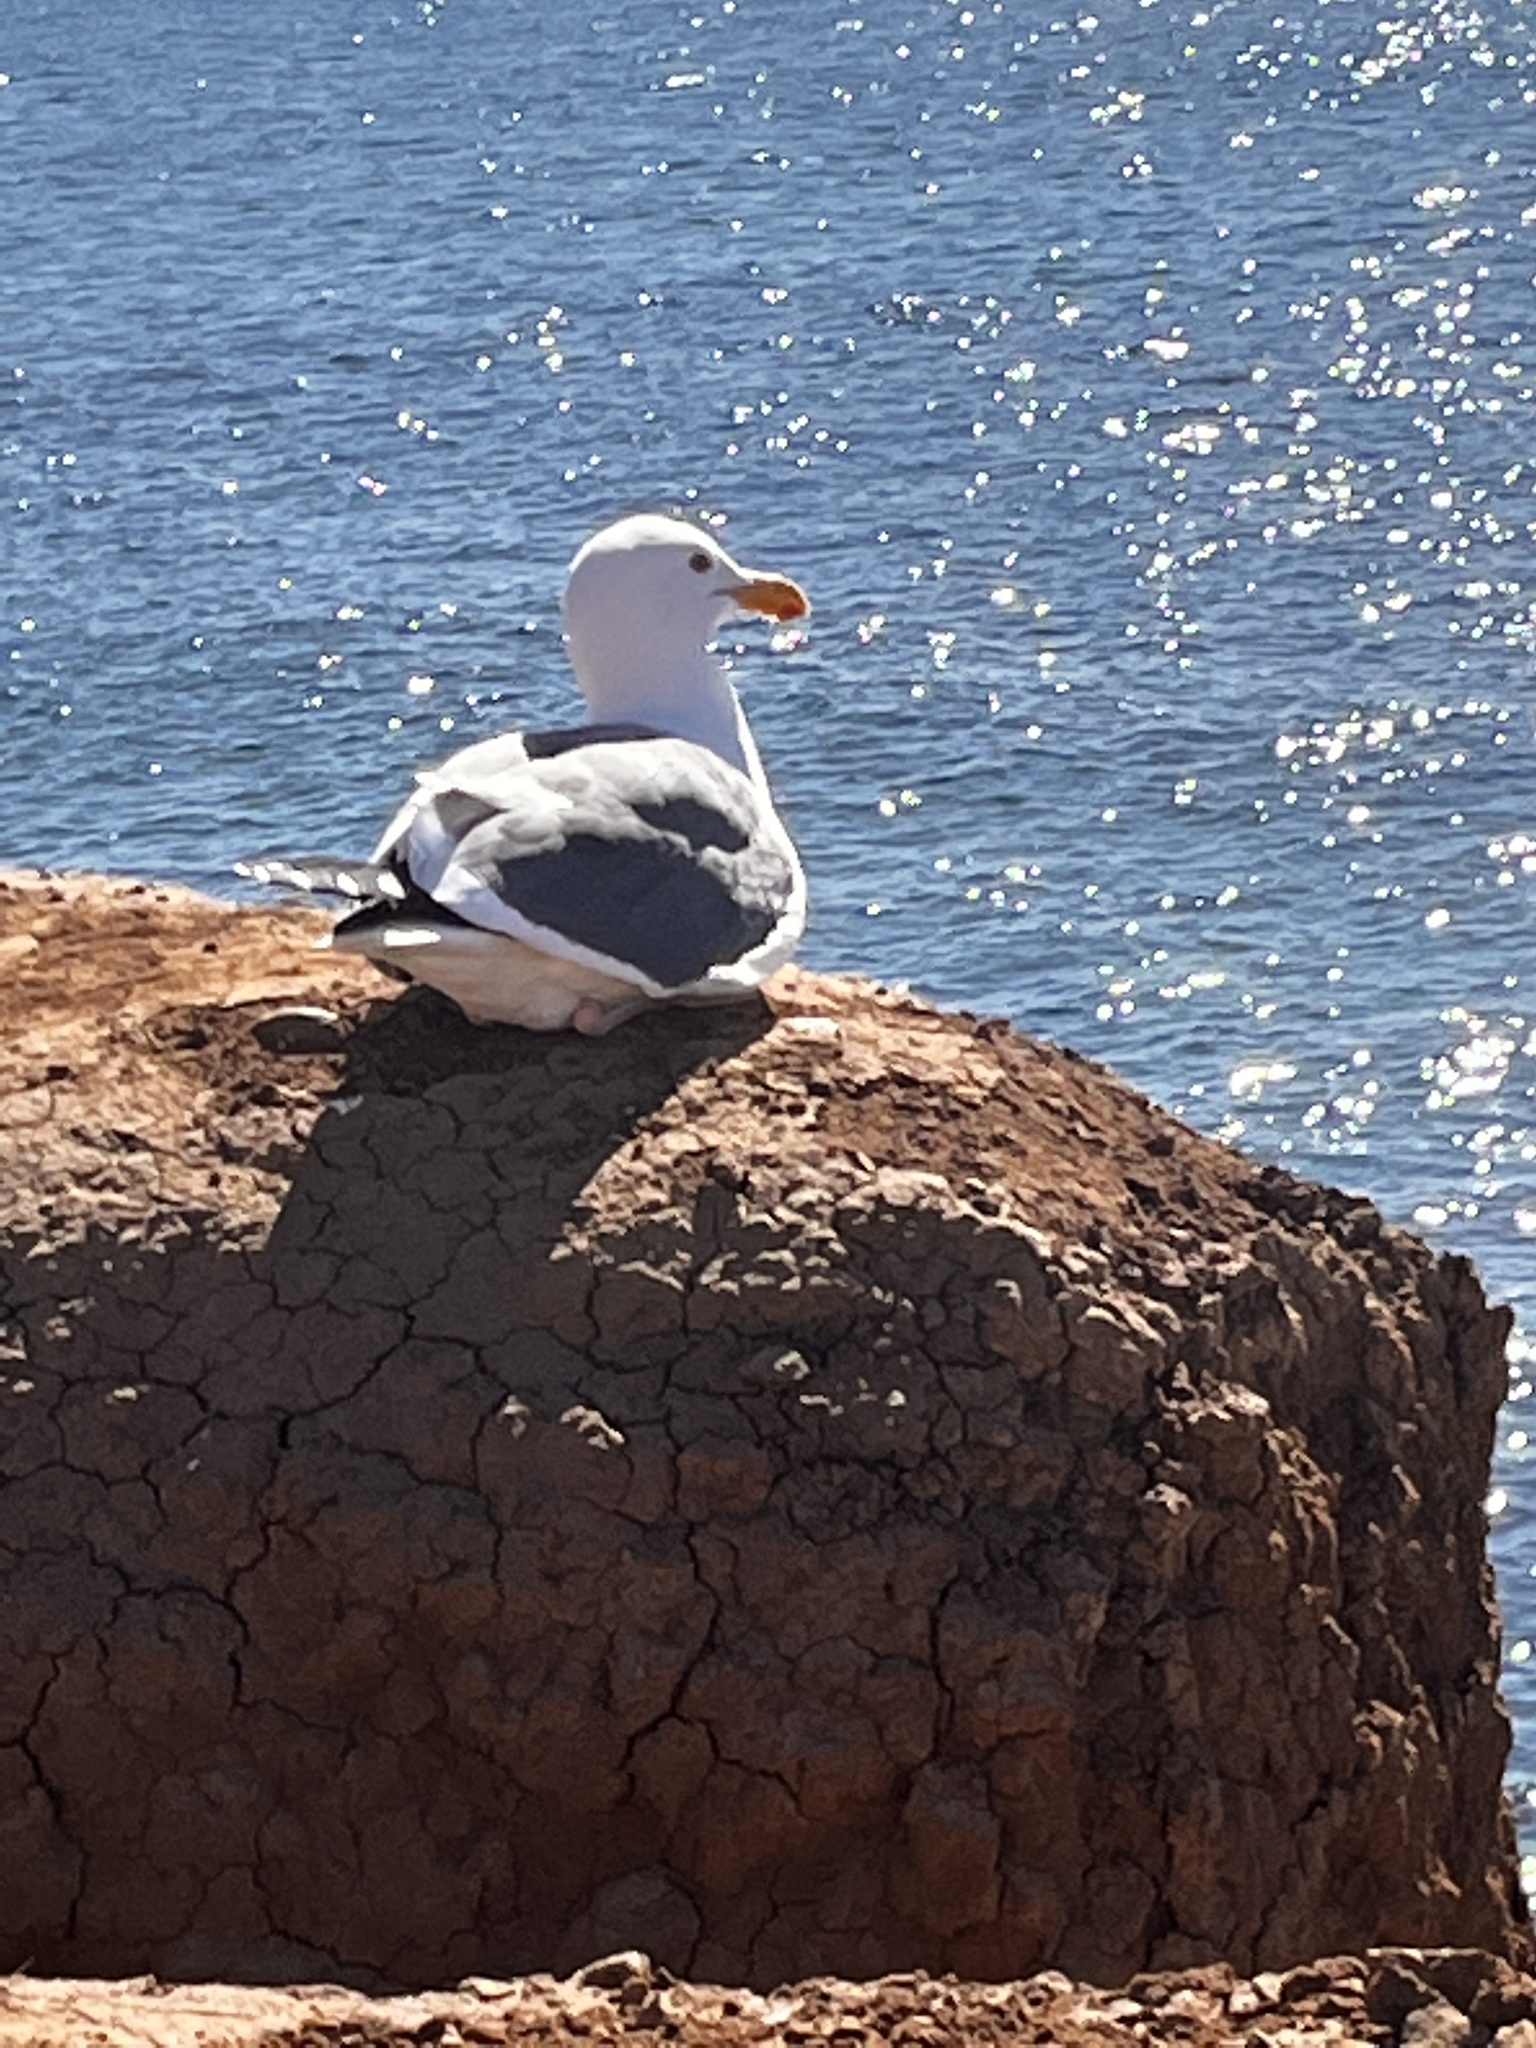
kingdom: Animalia
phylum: Chordata
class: Aves
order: Charadriiformes
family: Laridae
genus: Larus
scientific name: Larus occidentalis
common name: Western gull
